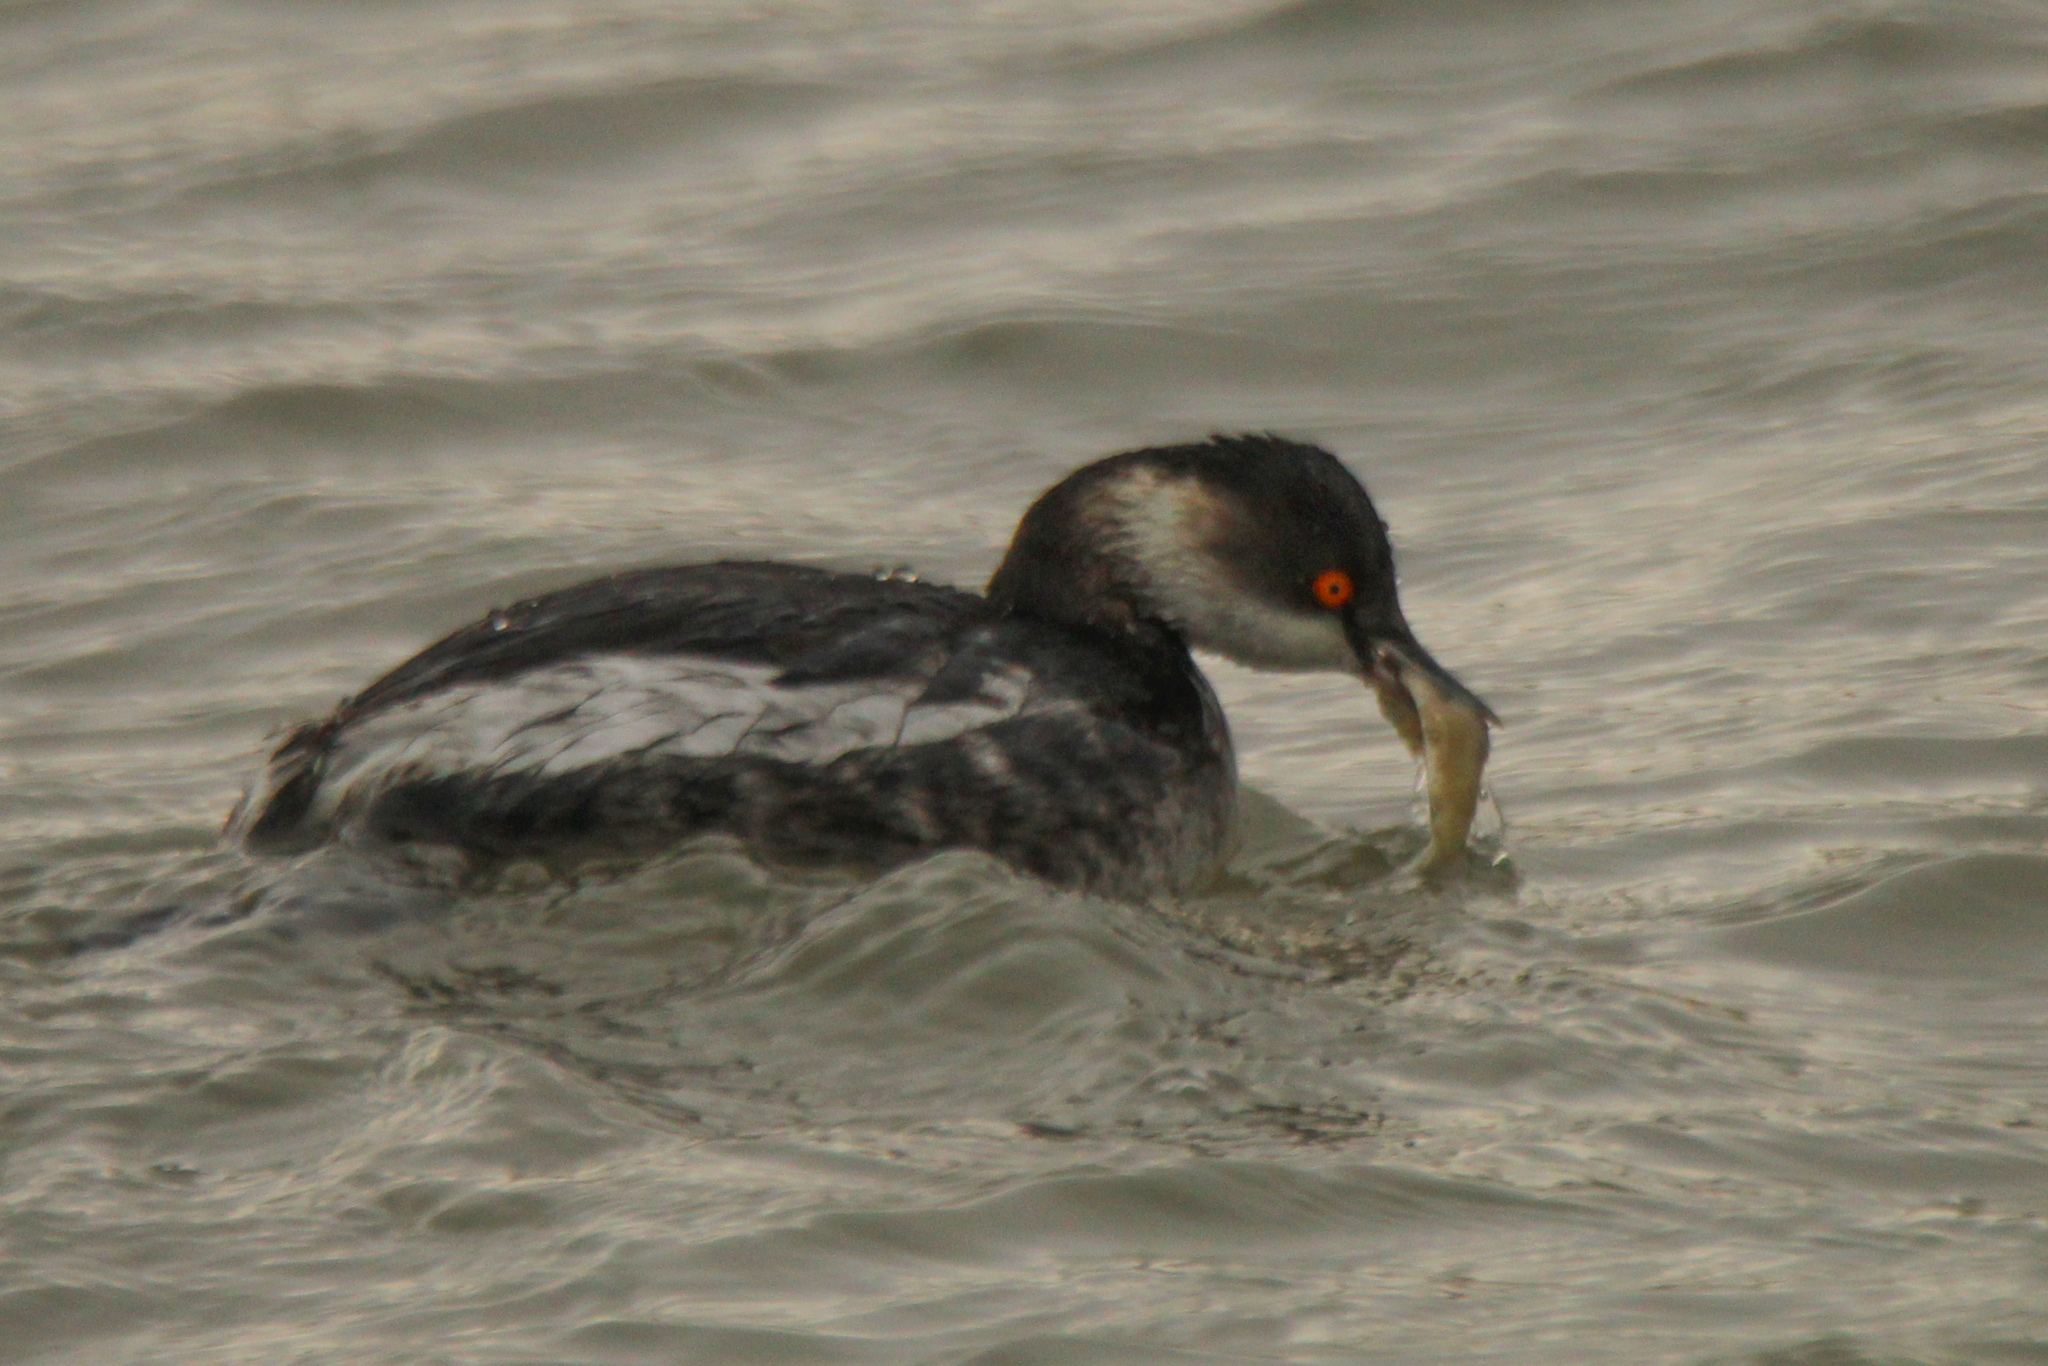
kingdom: Animalia
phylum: Chordata
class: Aves
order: Podicipediformes
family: Podicipedidae
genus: Podiceps
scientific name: Podiceps nigricollis
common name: Black-necked grebe
